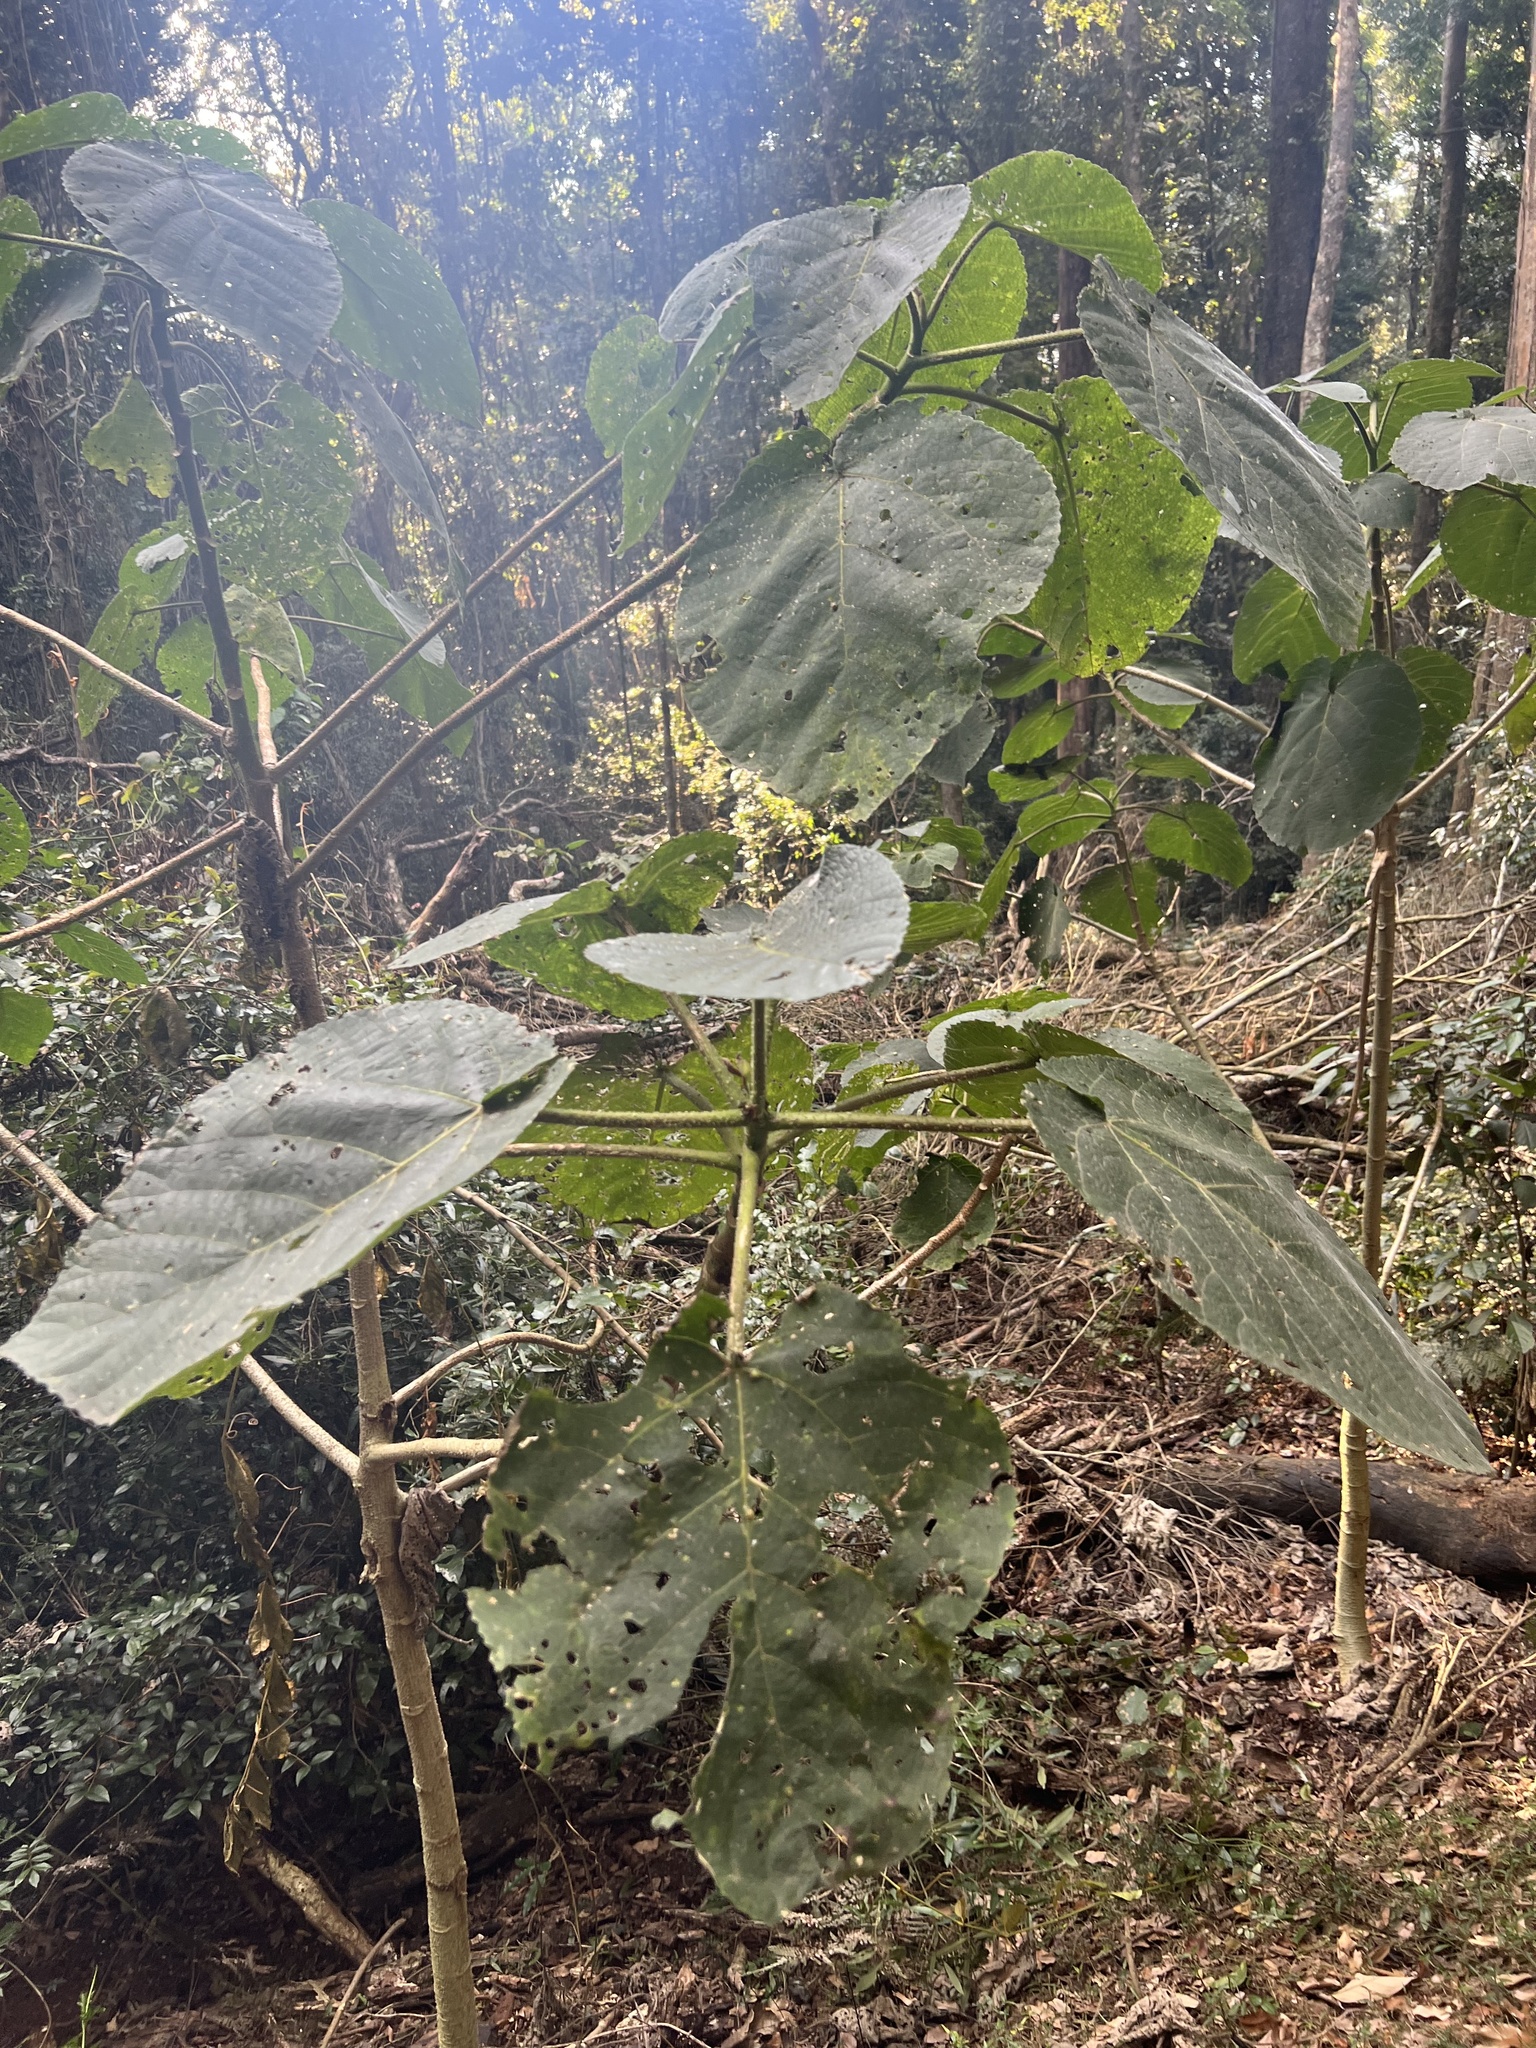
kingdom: Plantae
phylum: Tracheophyta
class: Magnoliopsida
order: Rosales
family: Urticaceae
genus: Dendrocnide
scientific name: Dendrocnide excelsa
